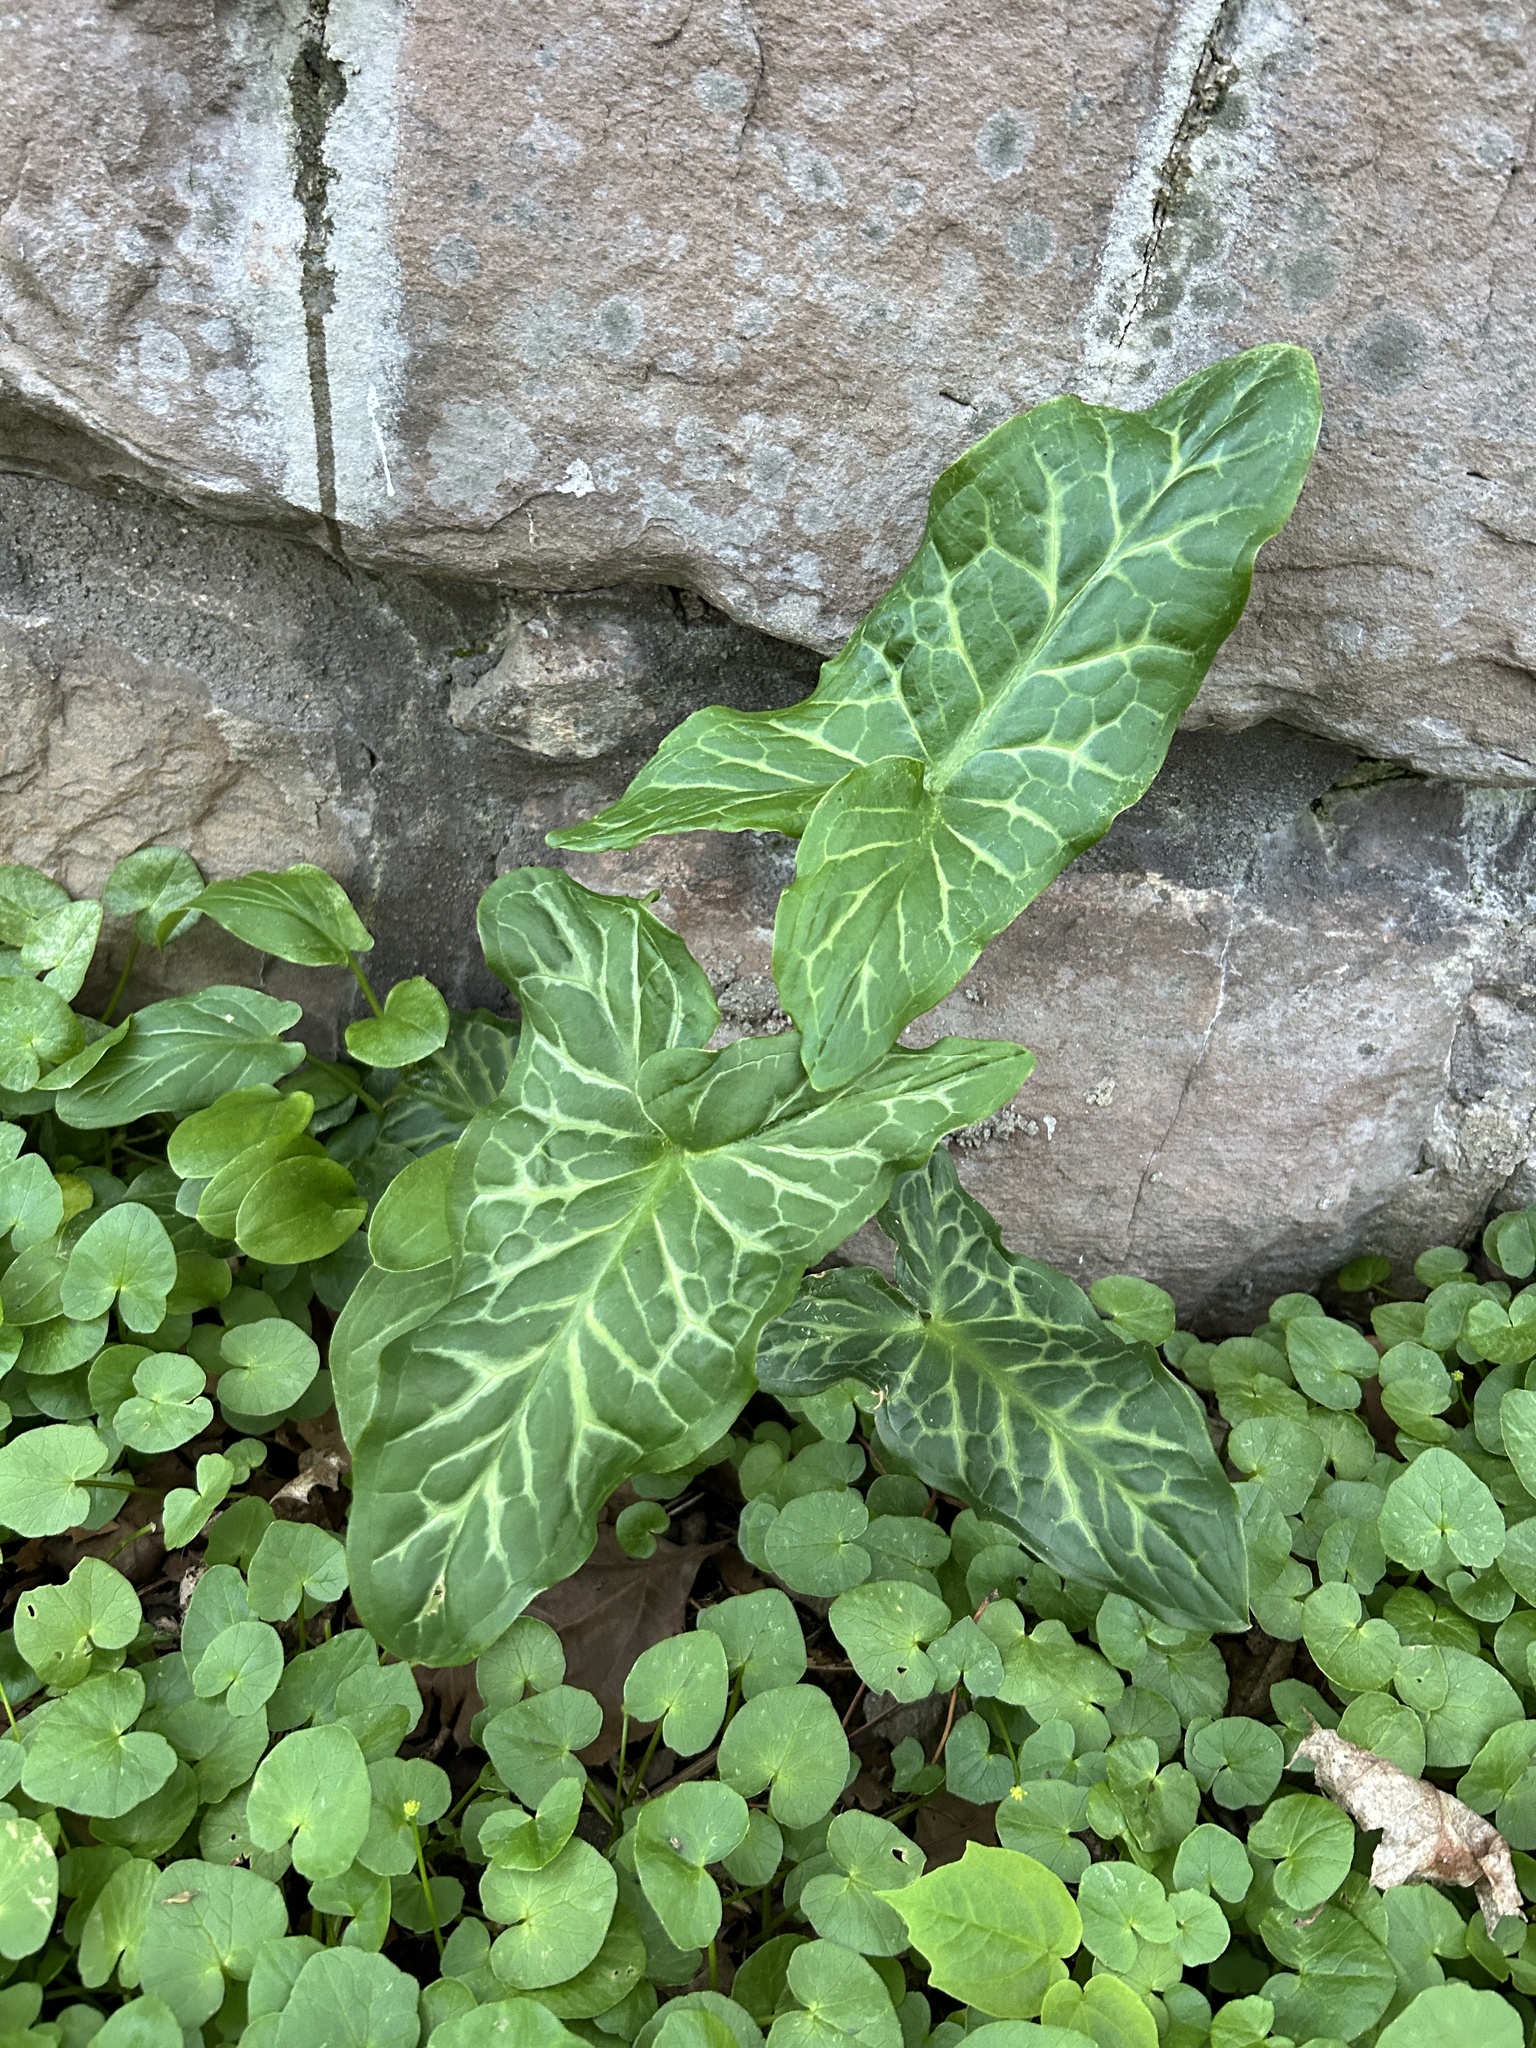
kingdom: Plantae
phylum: Tracheophyta
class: Liliopsida
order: Alismatales
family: Araceae
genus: Arum
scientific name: Arum italicum
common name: Italian lords-and-ladies
